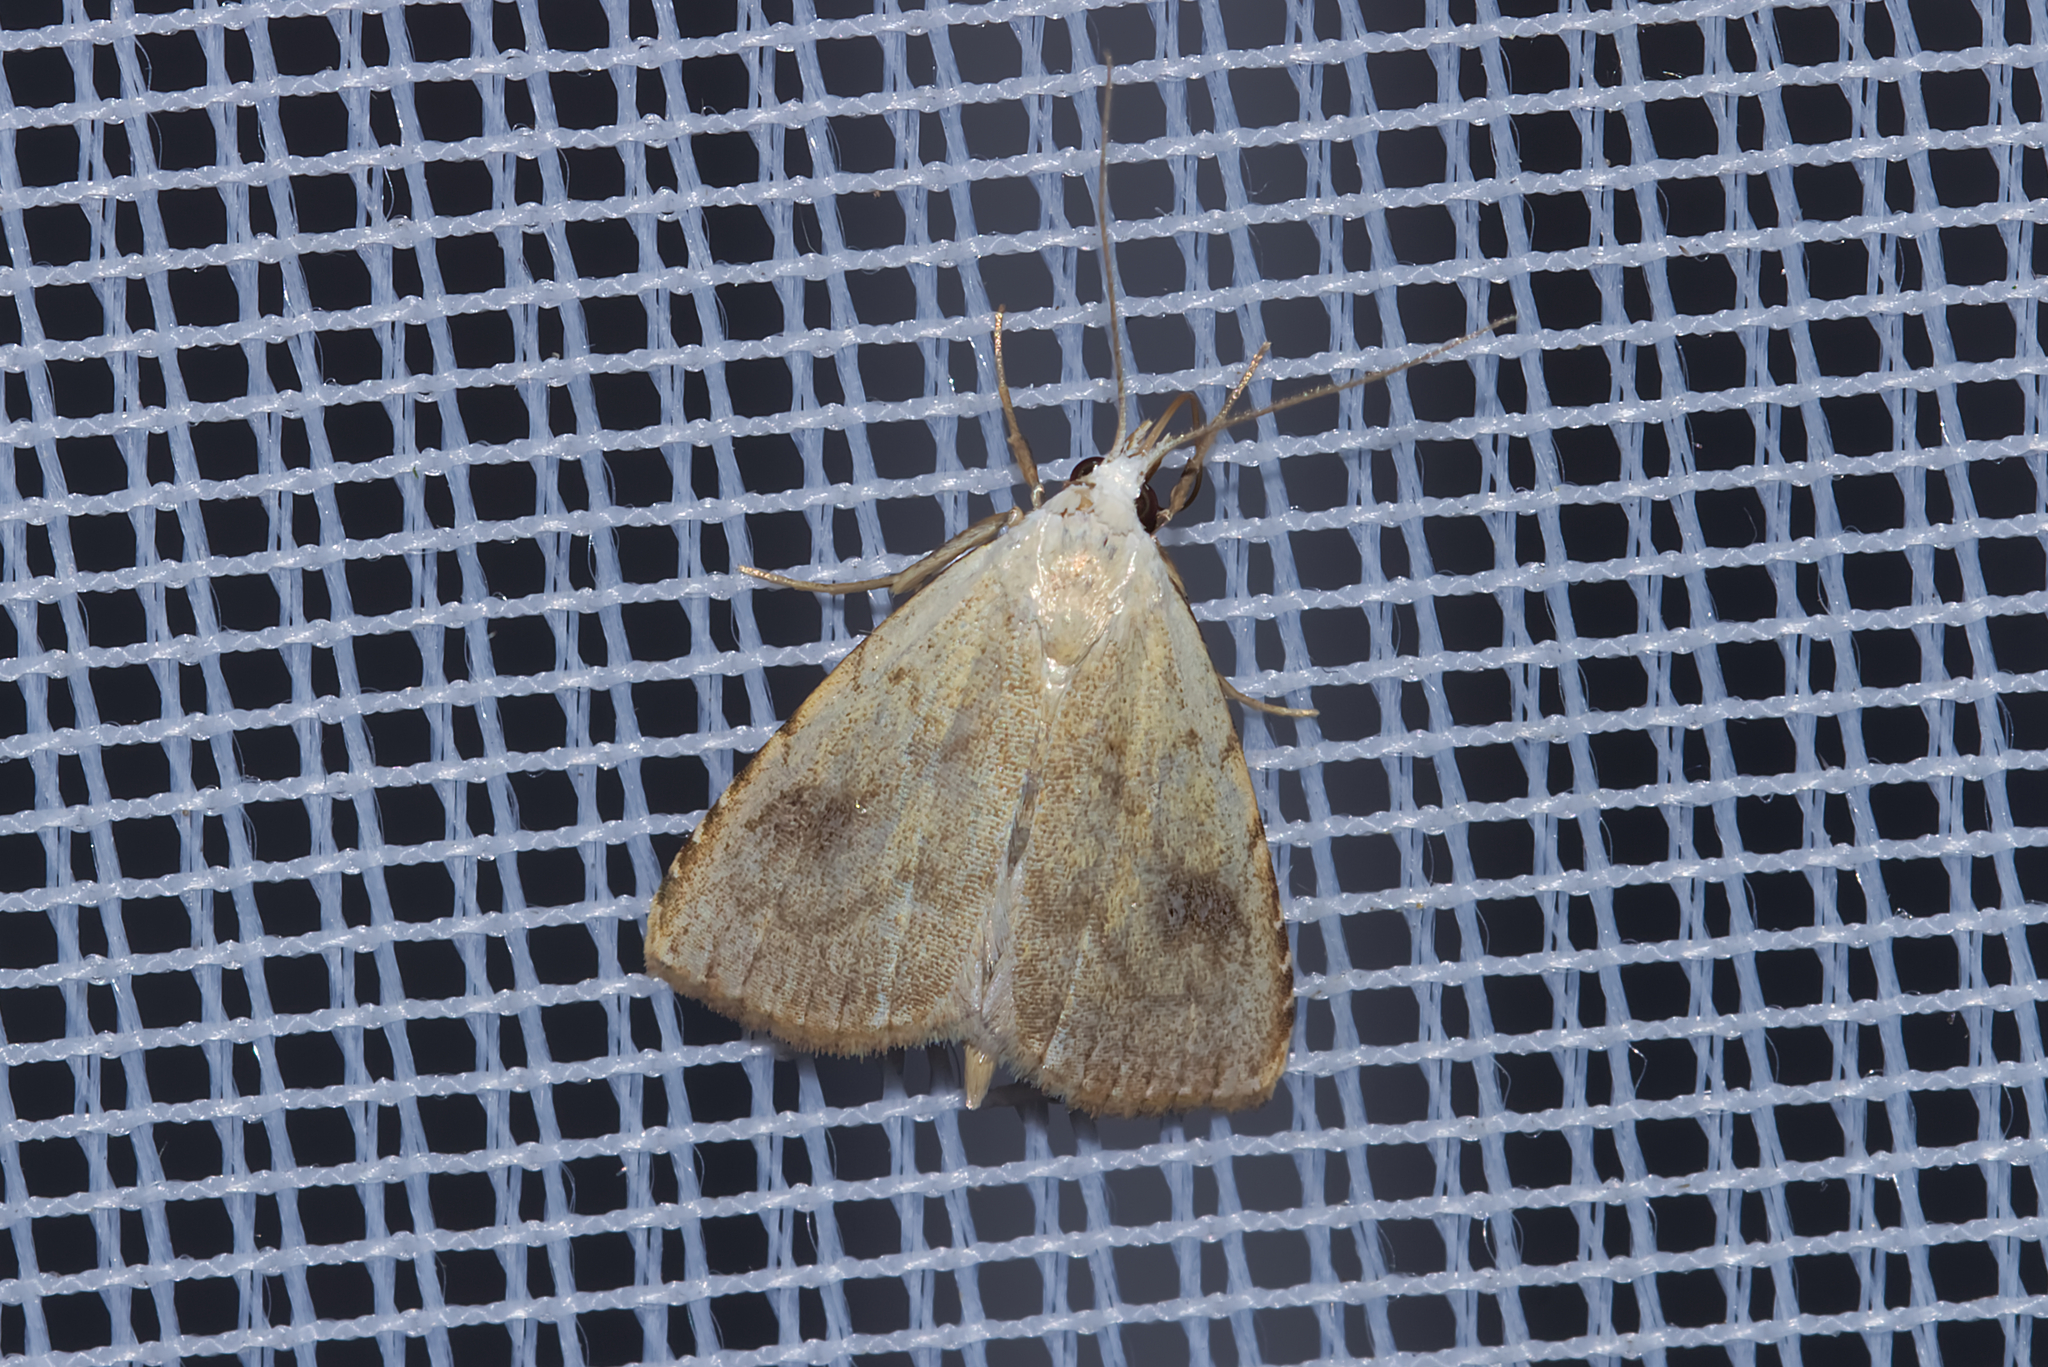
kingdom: Animalia
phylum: Arthropoda
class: Insecta
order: Lepidoptera
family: Erebidae
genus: Rivula
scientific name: Rivula sericealis
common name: Straw dot
